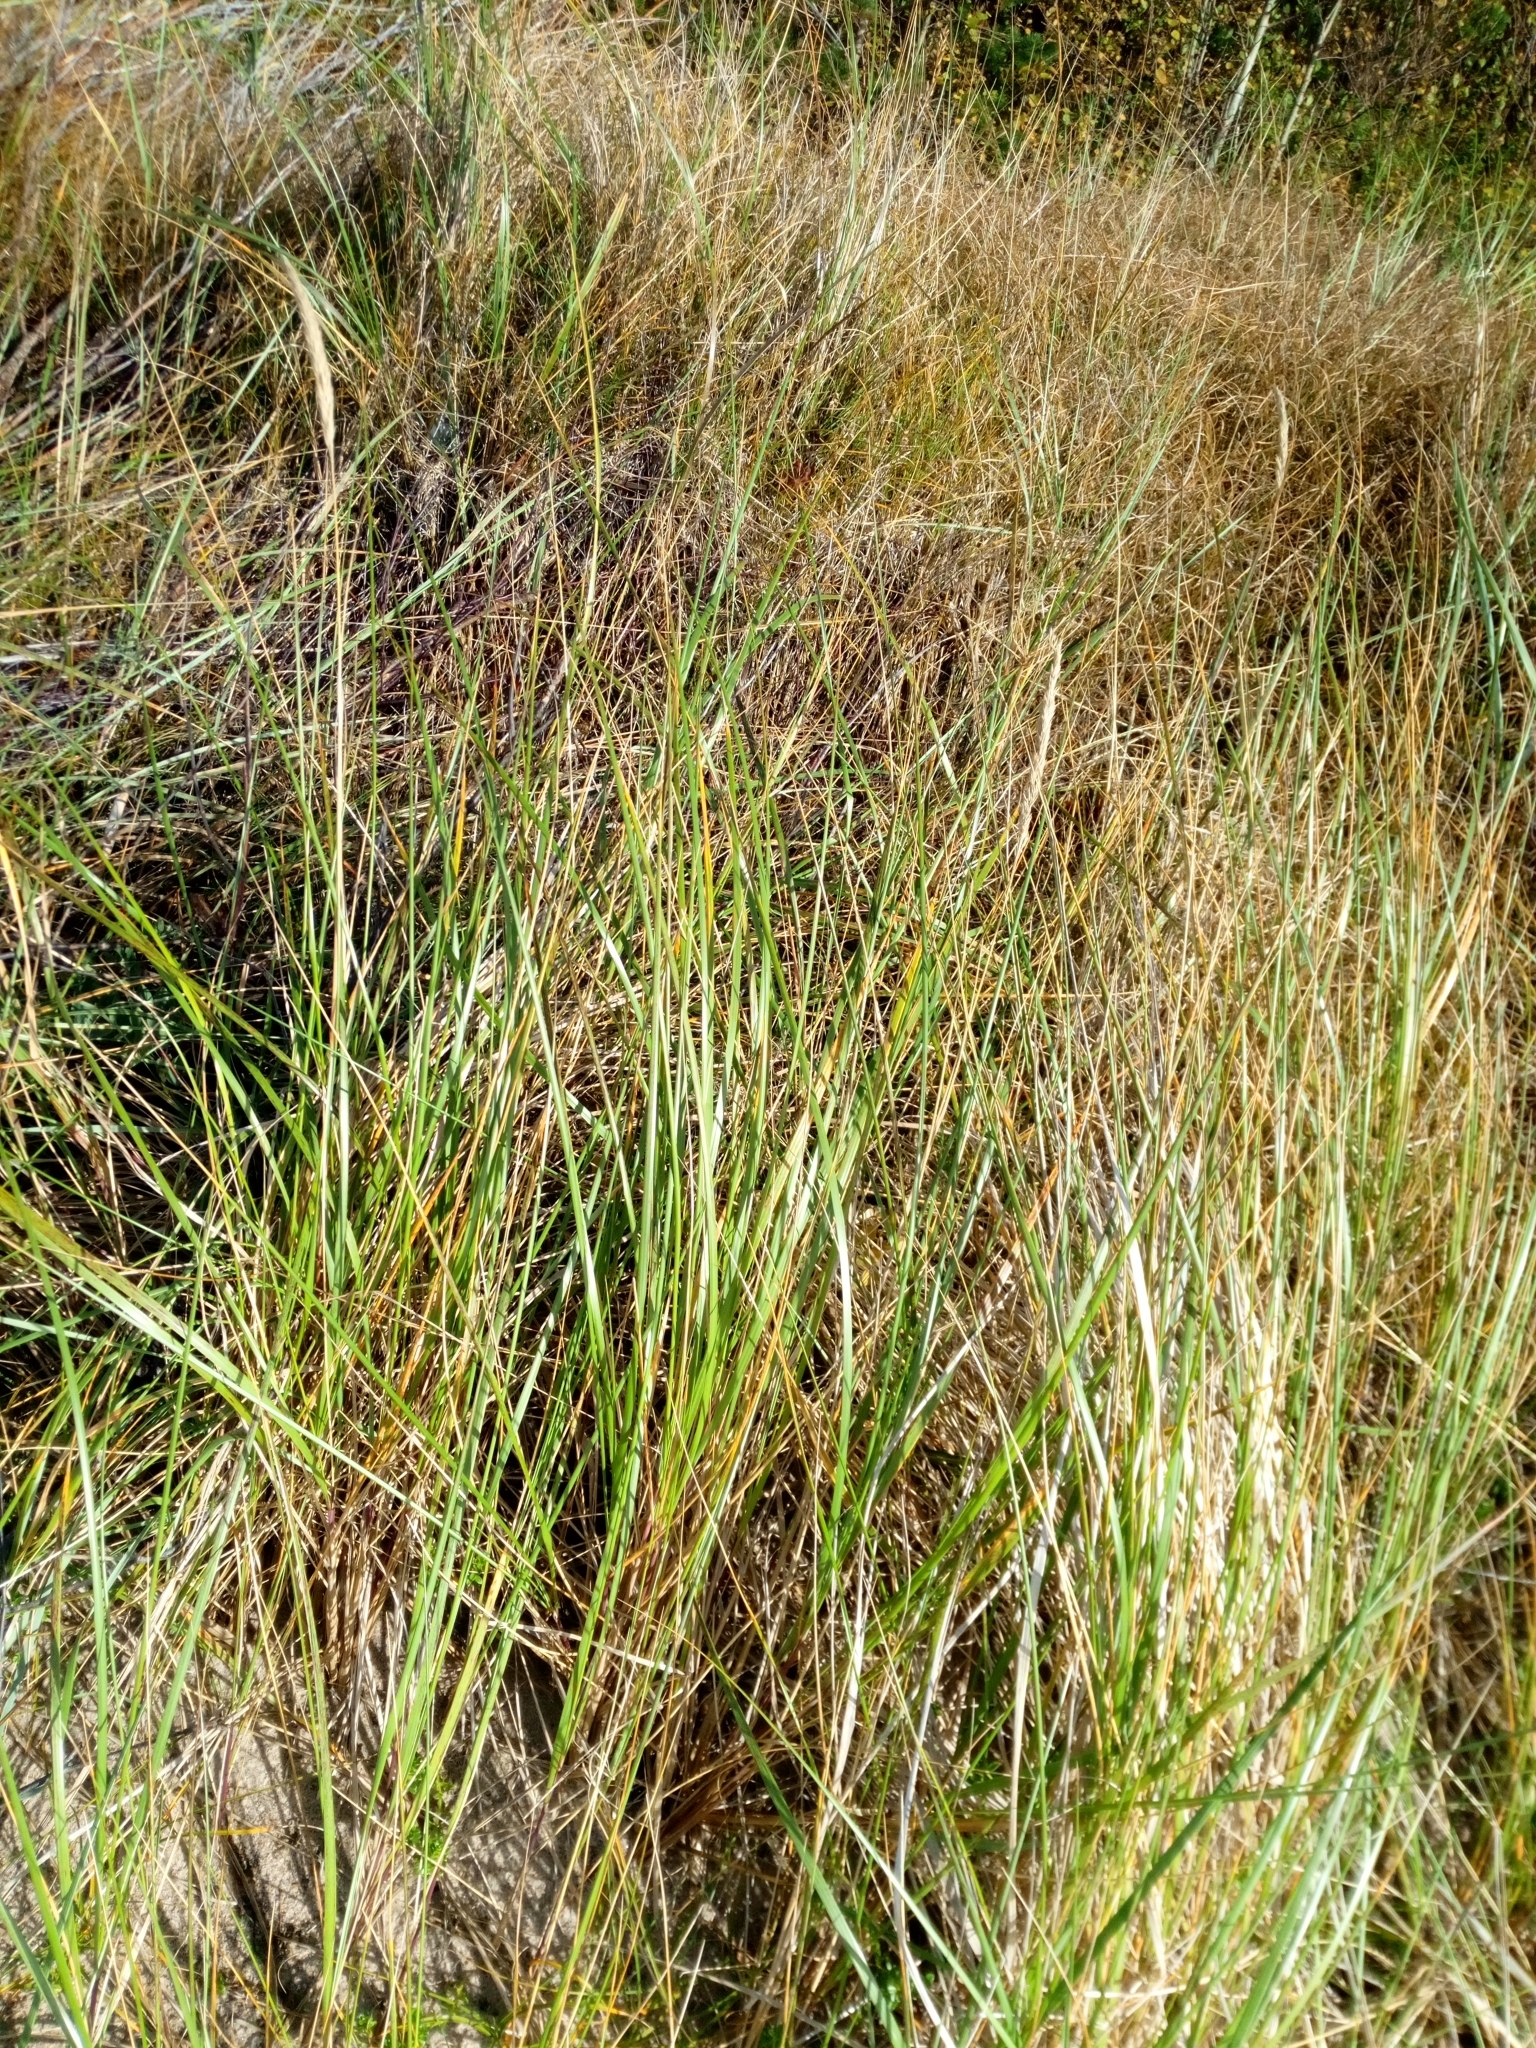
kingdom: Plantae
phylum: Tracheophyta
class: Liliopsida
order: Poales
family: Poaceae
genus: Calamagrostis
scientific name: Calamagrostis arenaria
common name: European beachgrass
